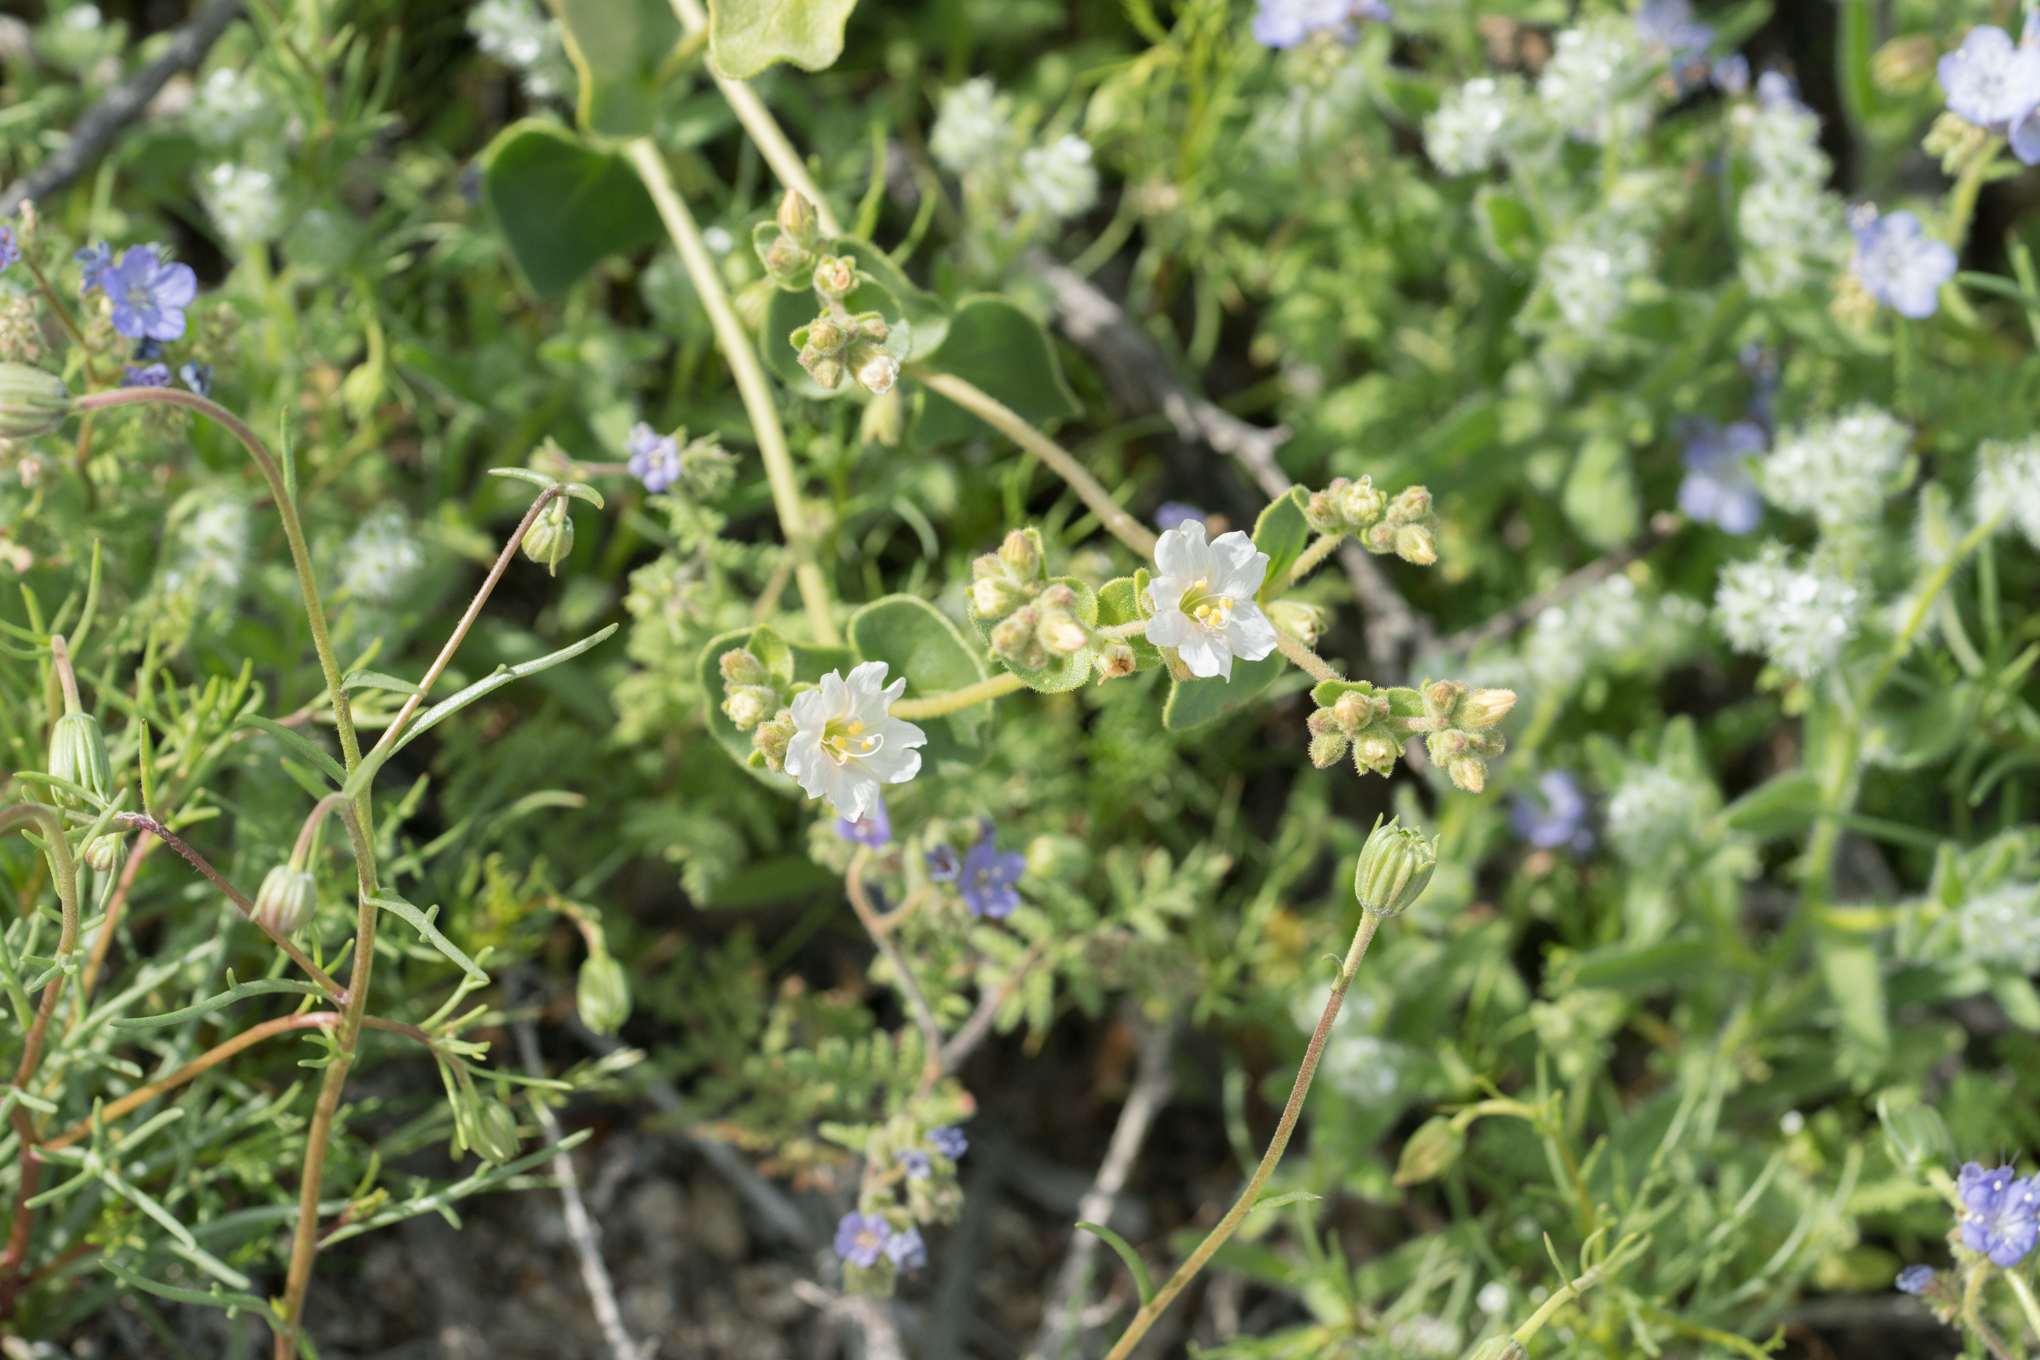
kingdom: Plantae
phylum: Tracheophyta
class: Magnoliopsida
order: Caryophyllales
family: Nyctaginaceae
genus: Mirabilis
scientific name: Mirabilis laevis
